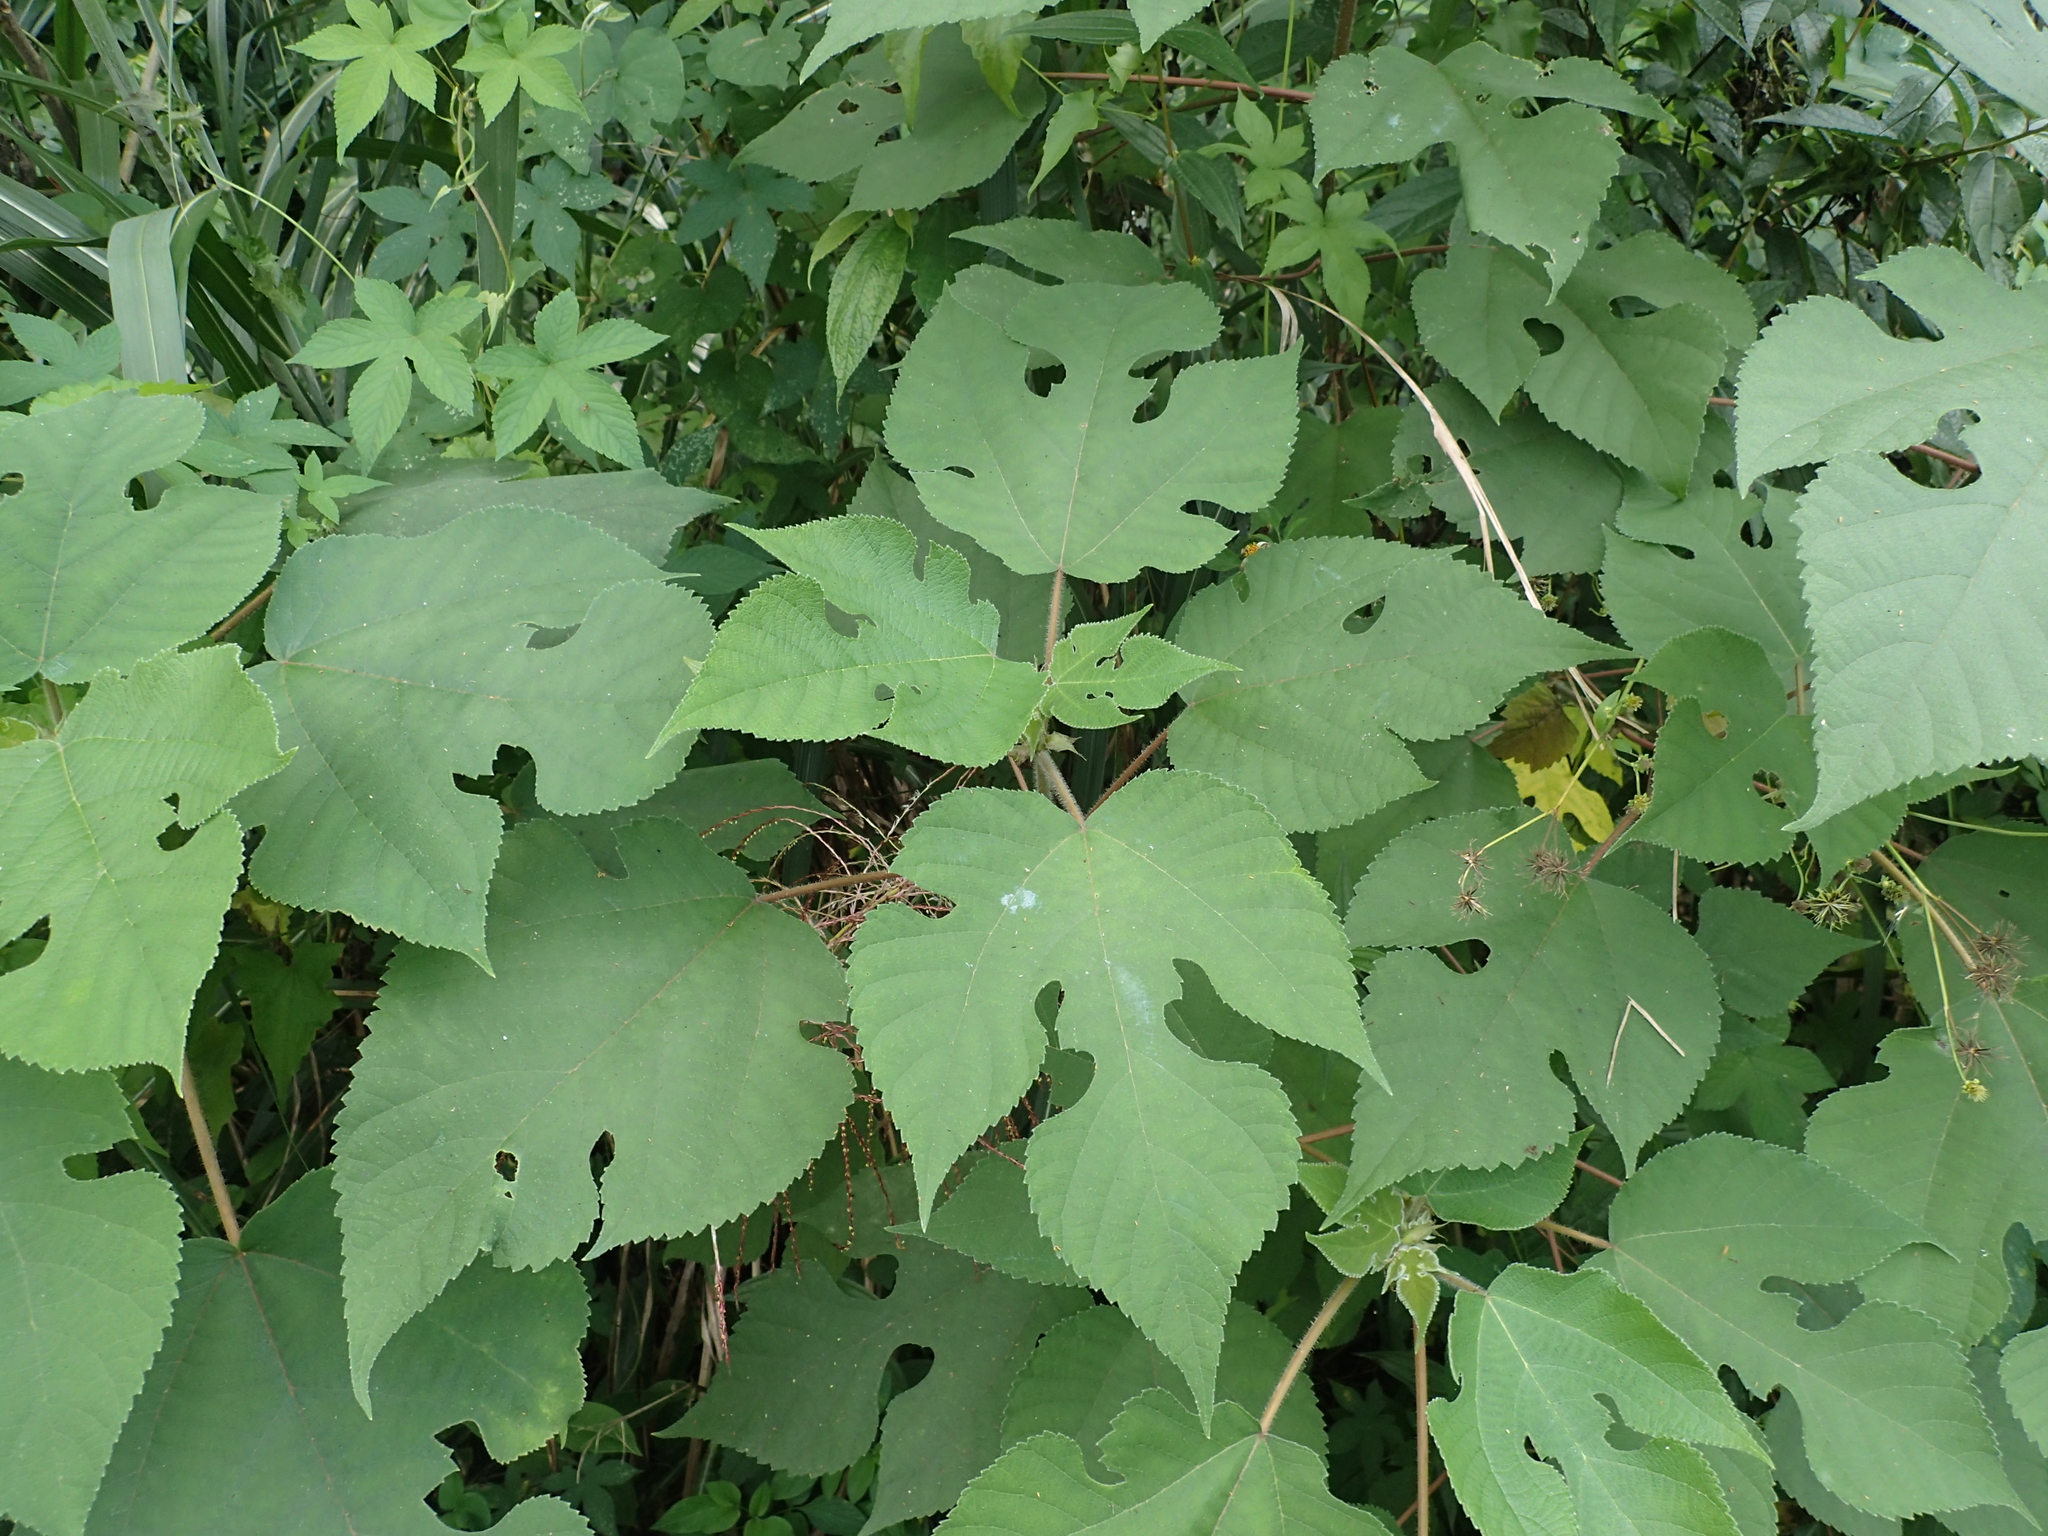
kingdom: Plantae
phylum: Tracheophyta
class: Magnoliopsida
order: Rosales
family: Moraceae
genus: Broussonetia
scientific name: Broussonetia papyrifera
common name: Paper mulberry
